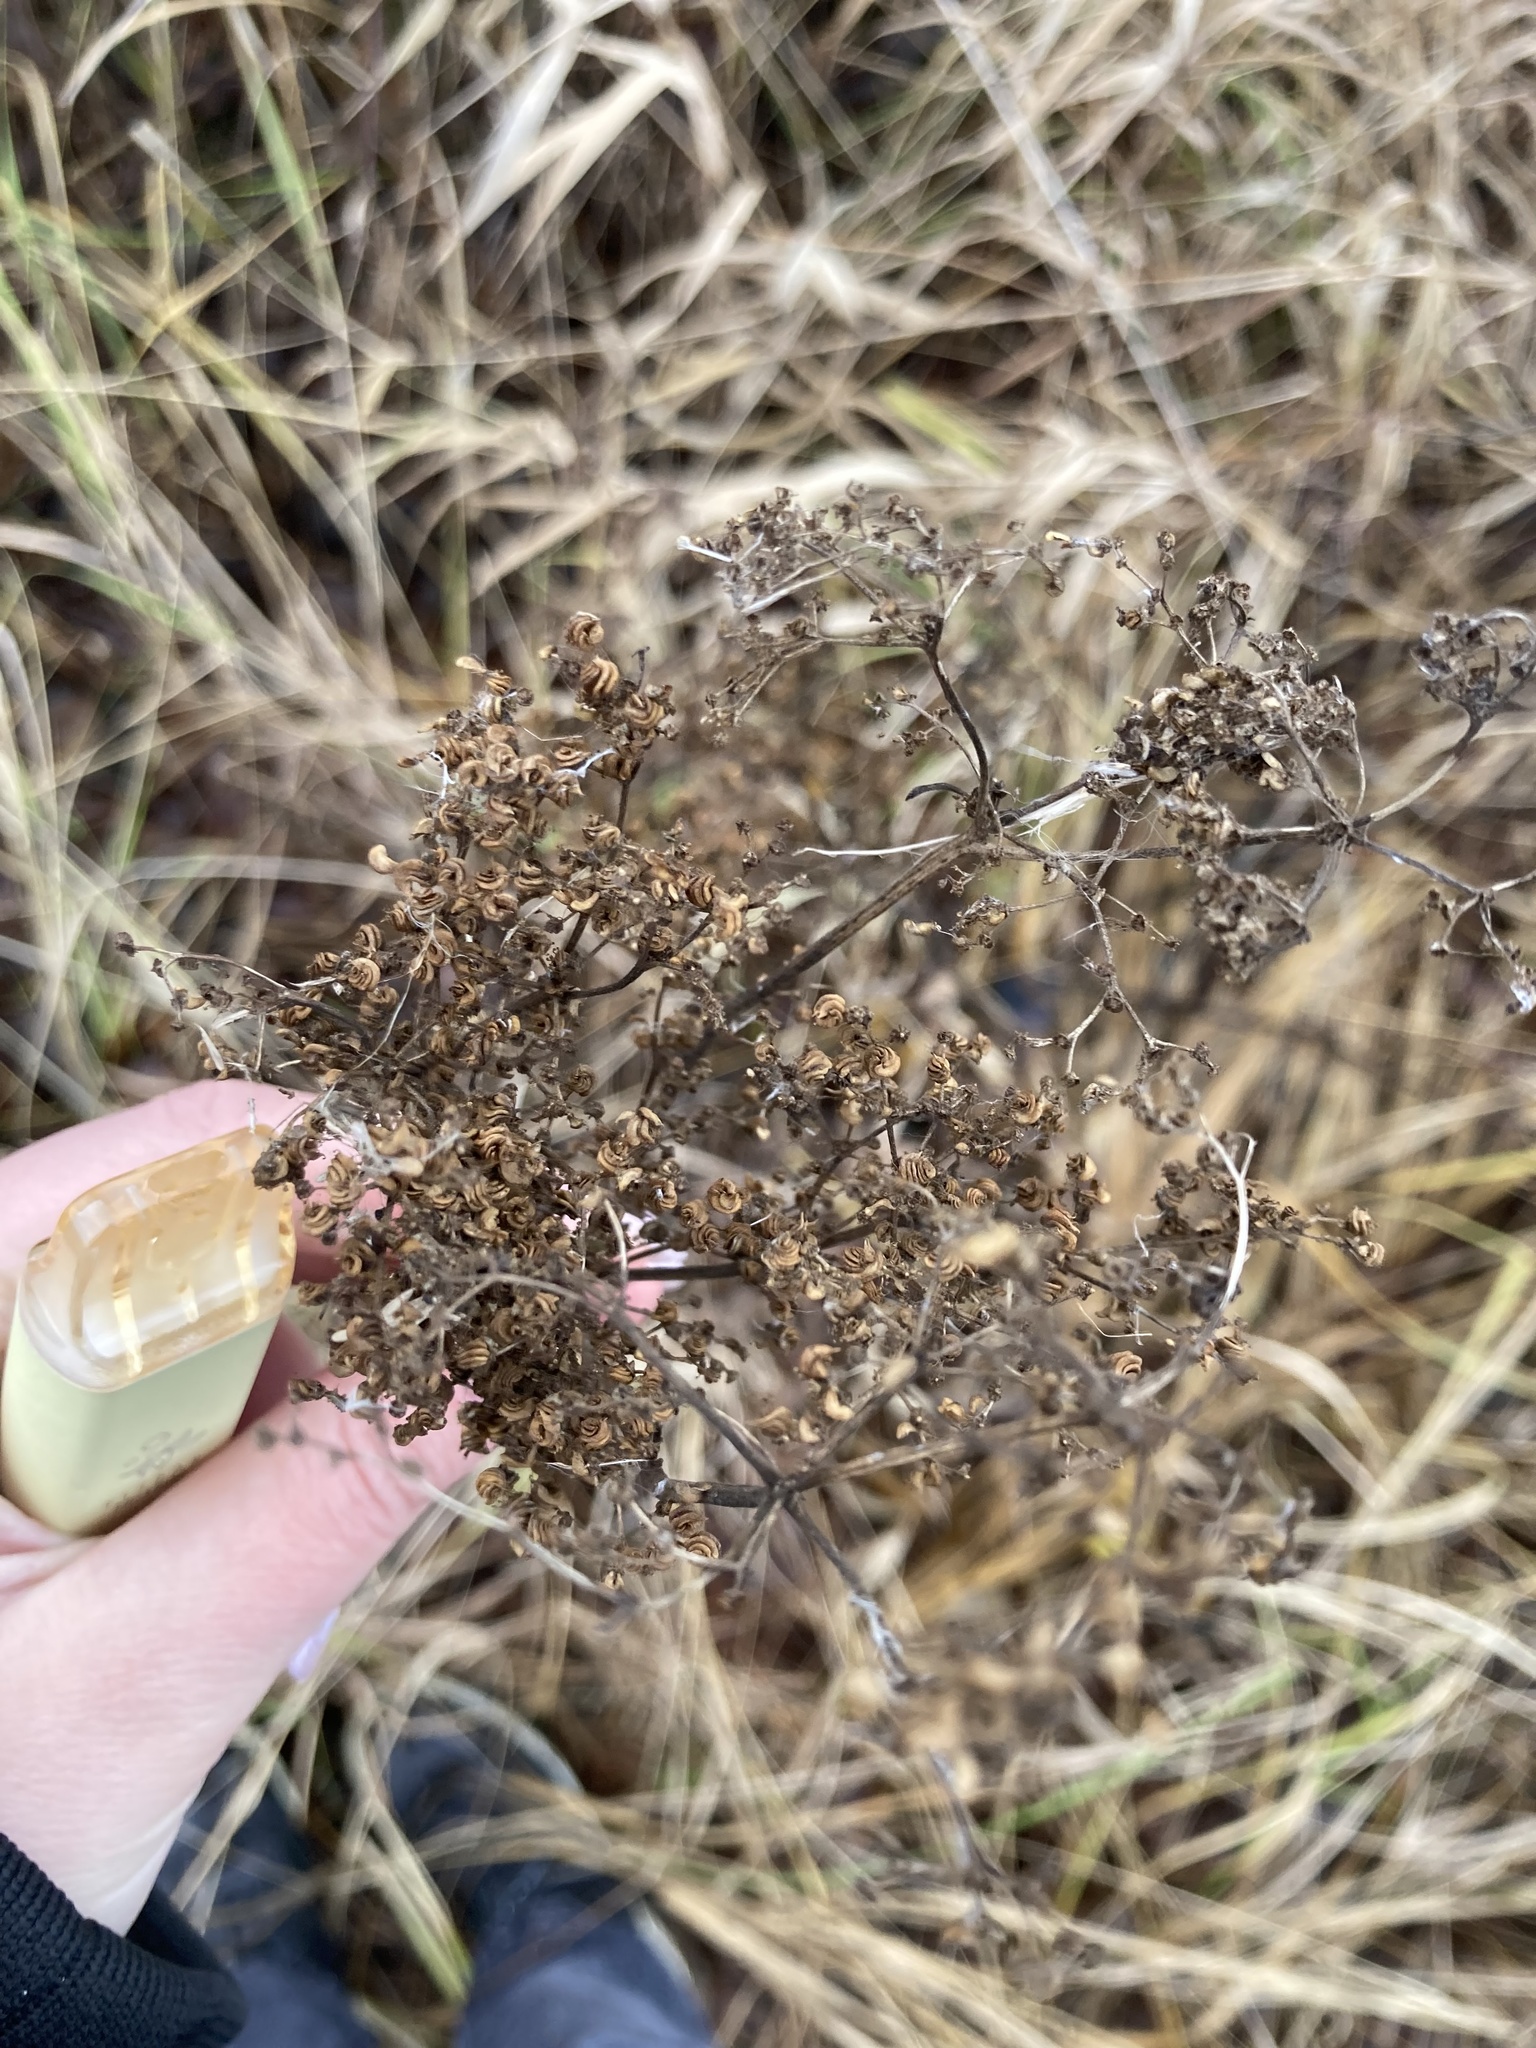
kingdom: Plantae
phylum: Tracheophyta
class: Magnoliopsida
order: Rosales
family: Rosaceae
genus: Filipendula
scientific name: Filipendula ulmaria
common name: Meadowsweet
